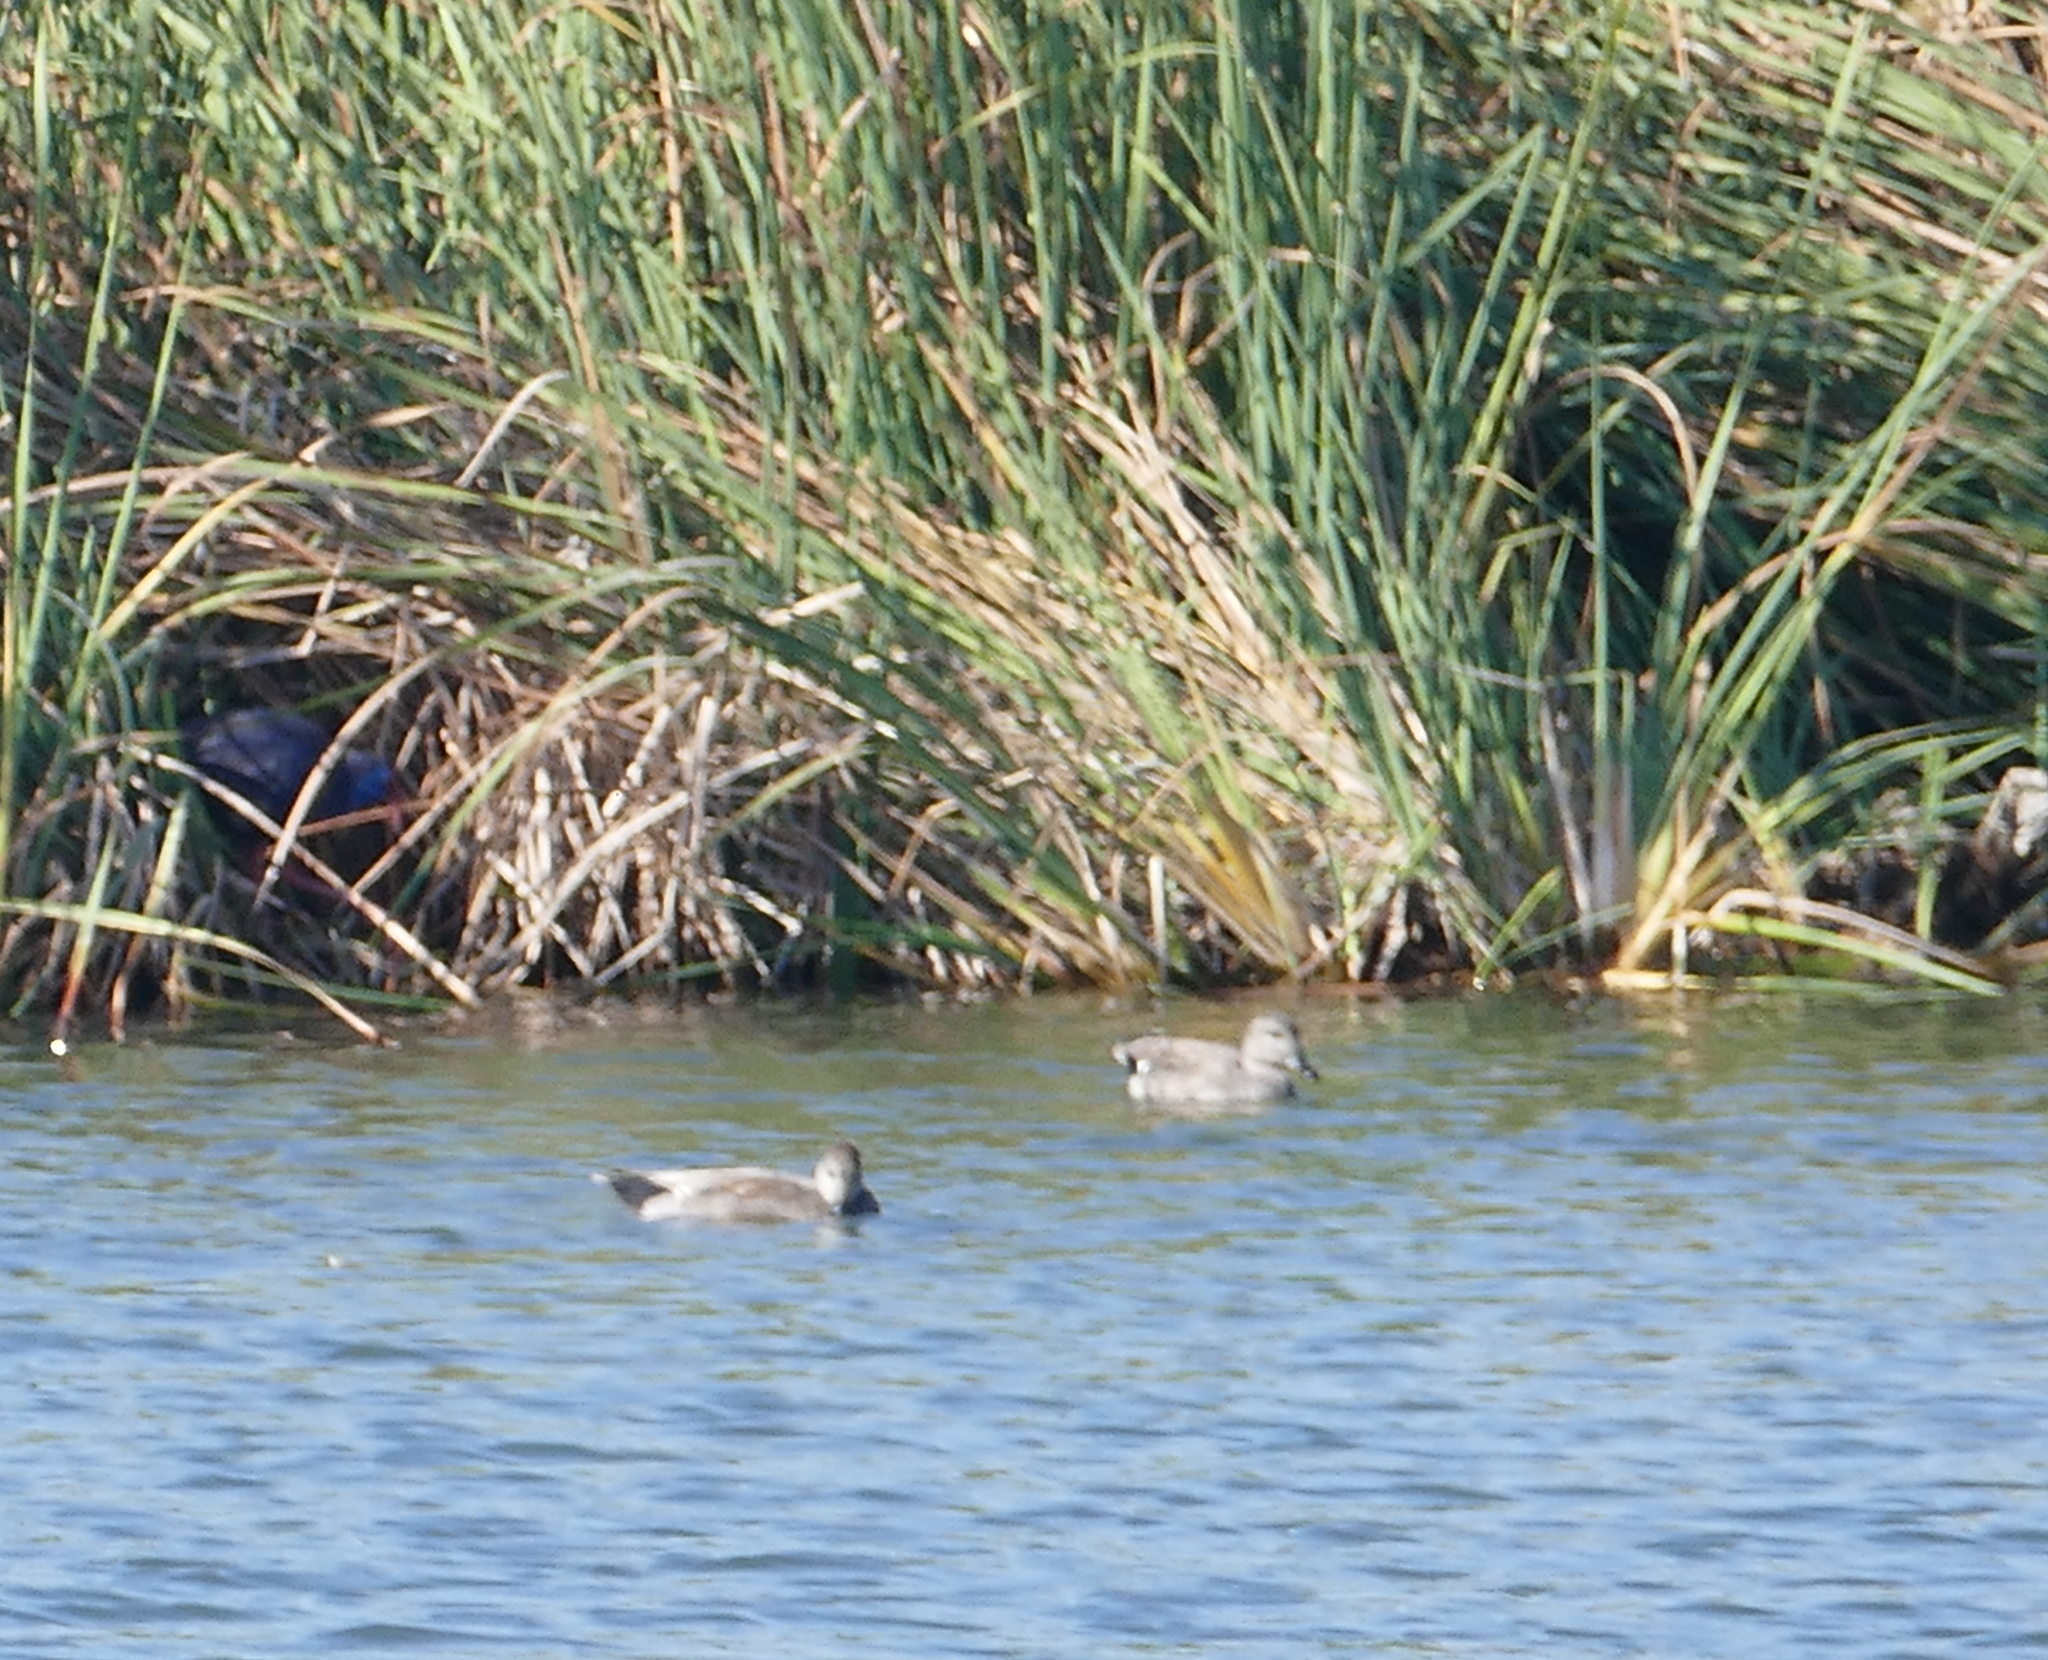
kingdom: Animalia
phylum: Chordata
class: Aves
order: Gruiformes
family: Rallidae
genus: Porphyrio
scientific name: Porphyrio porphyrio
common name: Purple swamphen
